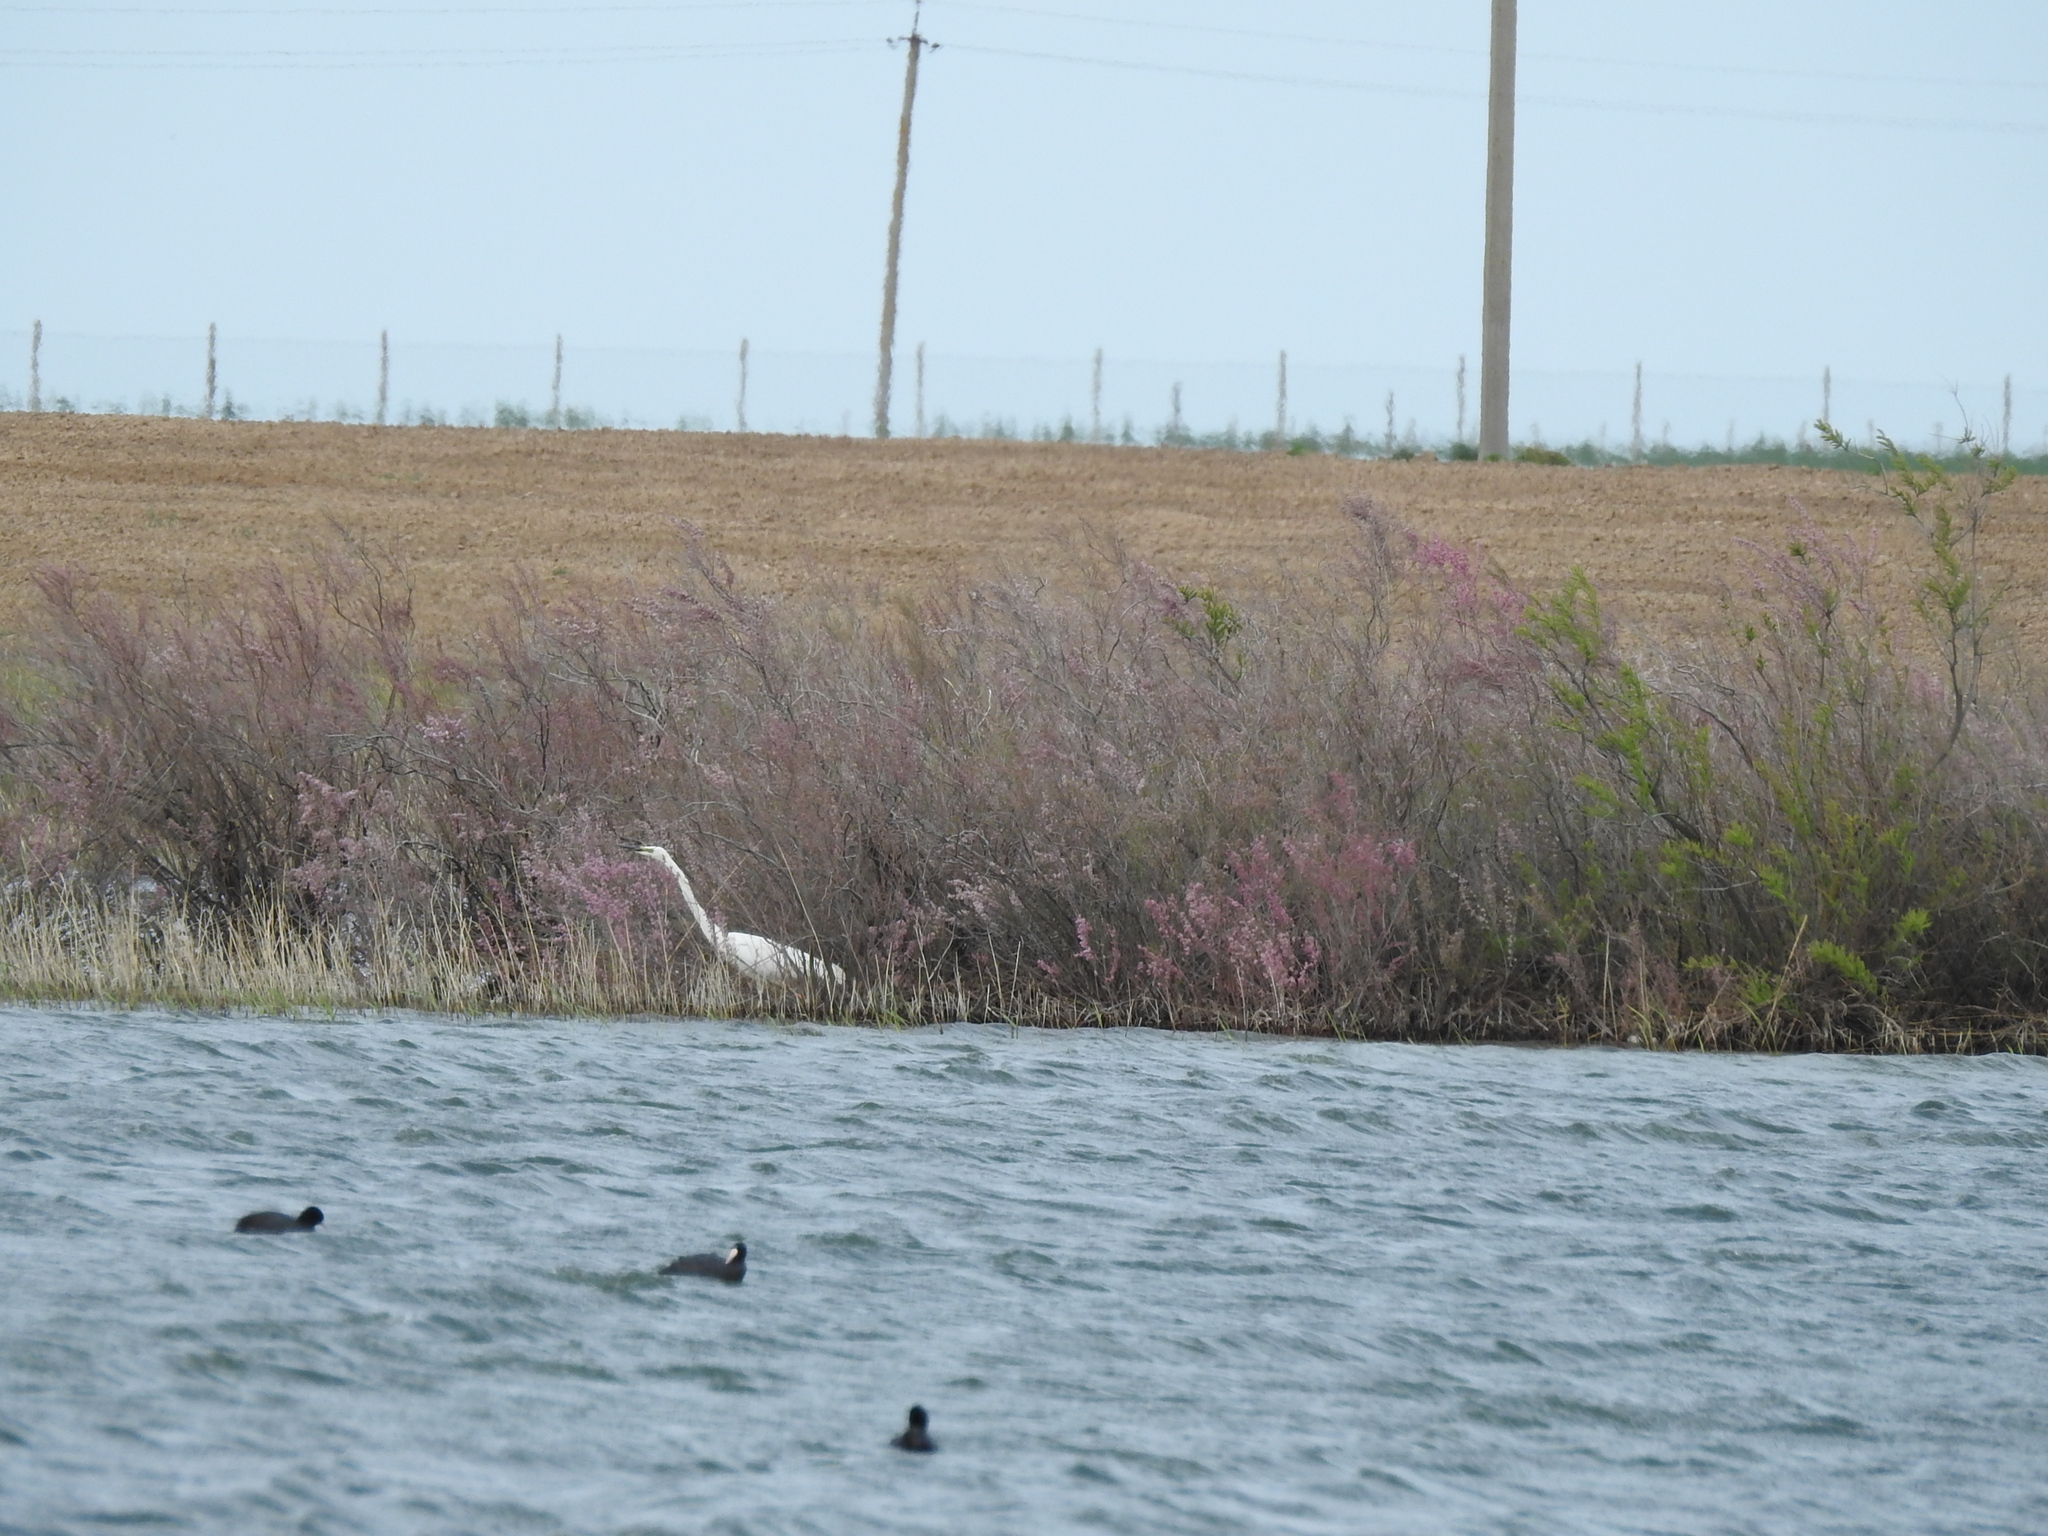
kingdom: Animalia
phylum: Chordata
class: Aves
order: Pelecaniformes
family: Ardeidae
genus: Ardea
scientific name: Ardea alba
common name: Great egret
